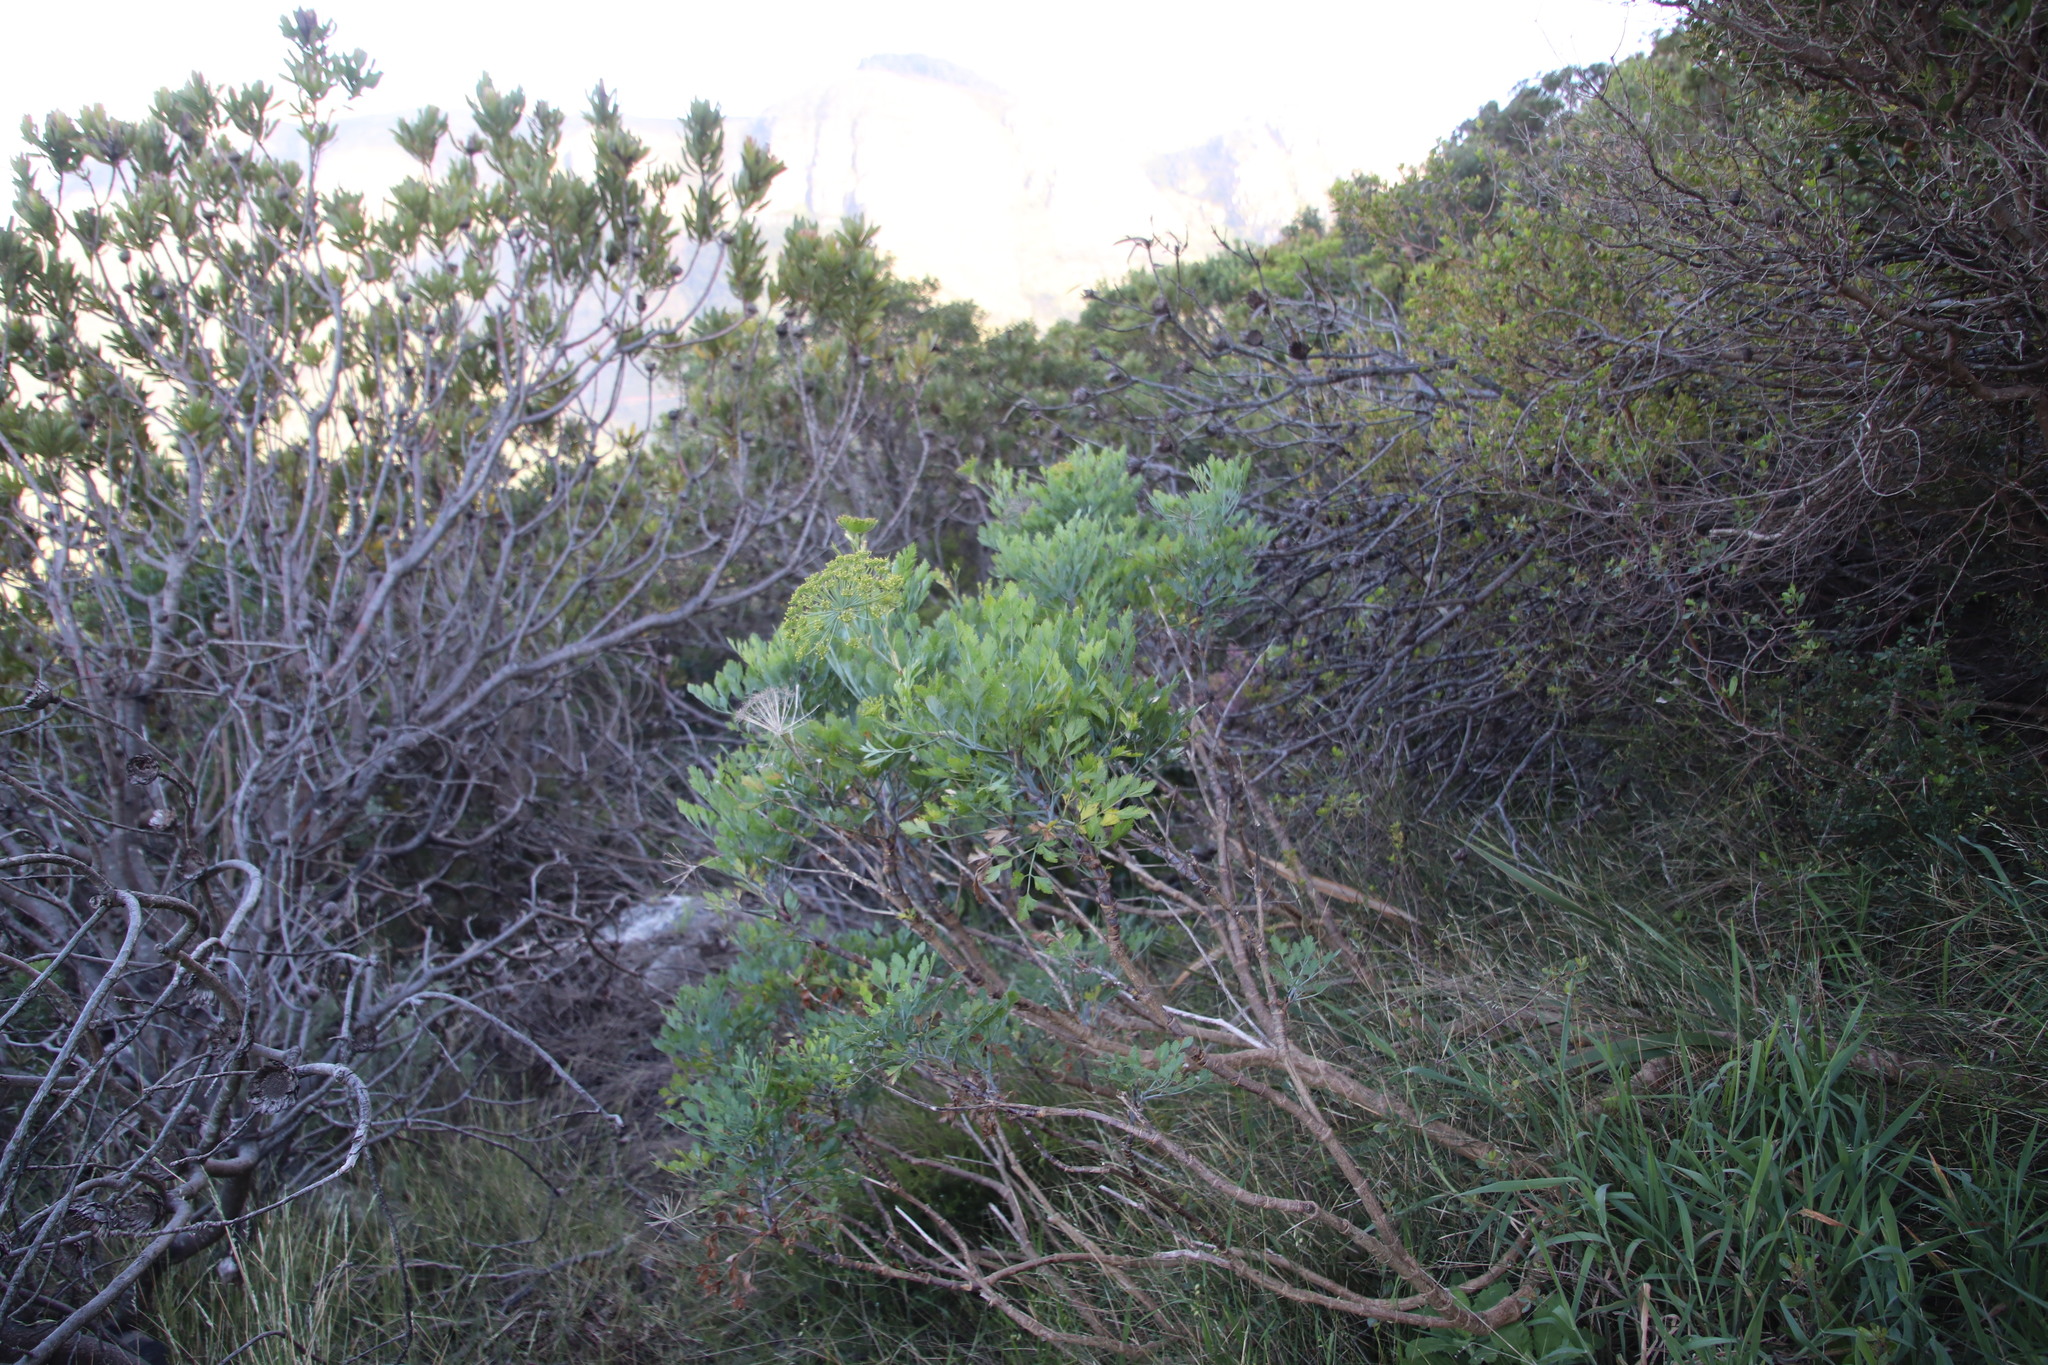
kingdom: Plantae
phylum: Tracheophyta
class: Magnoliopsida
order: Apiales
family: Apiaceae
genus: Notobubon
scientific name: Notobubon galbanum
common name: Blisterbush
